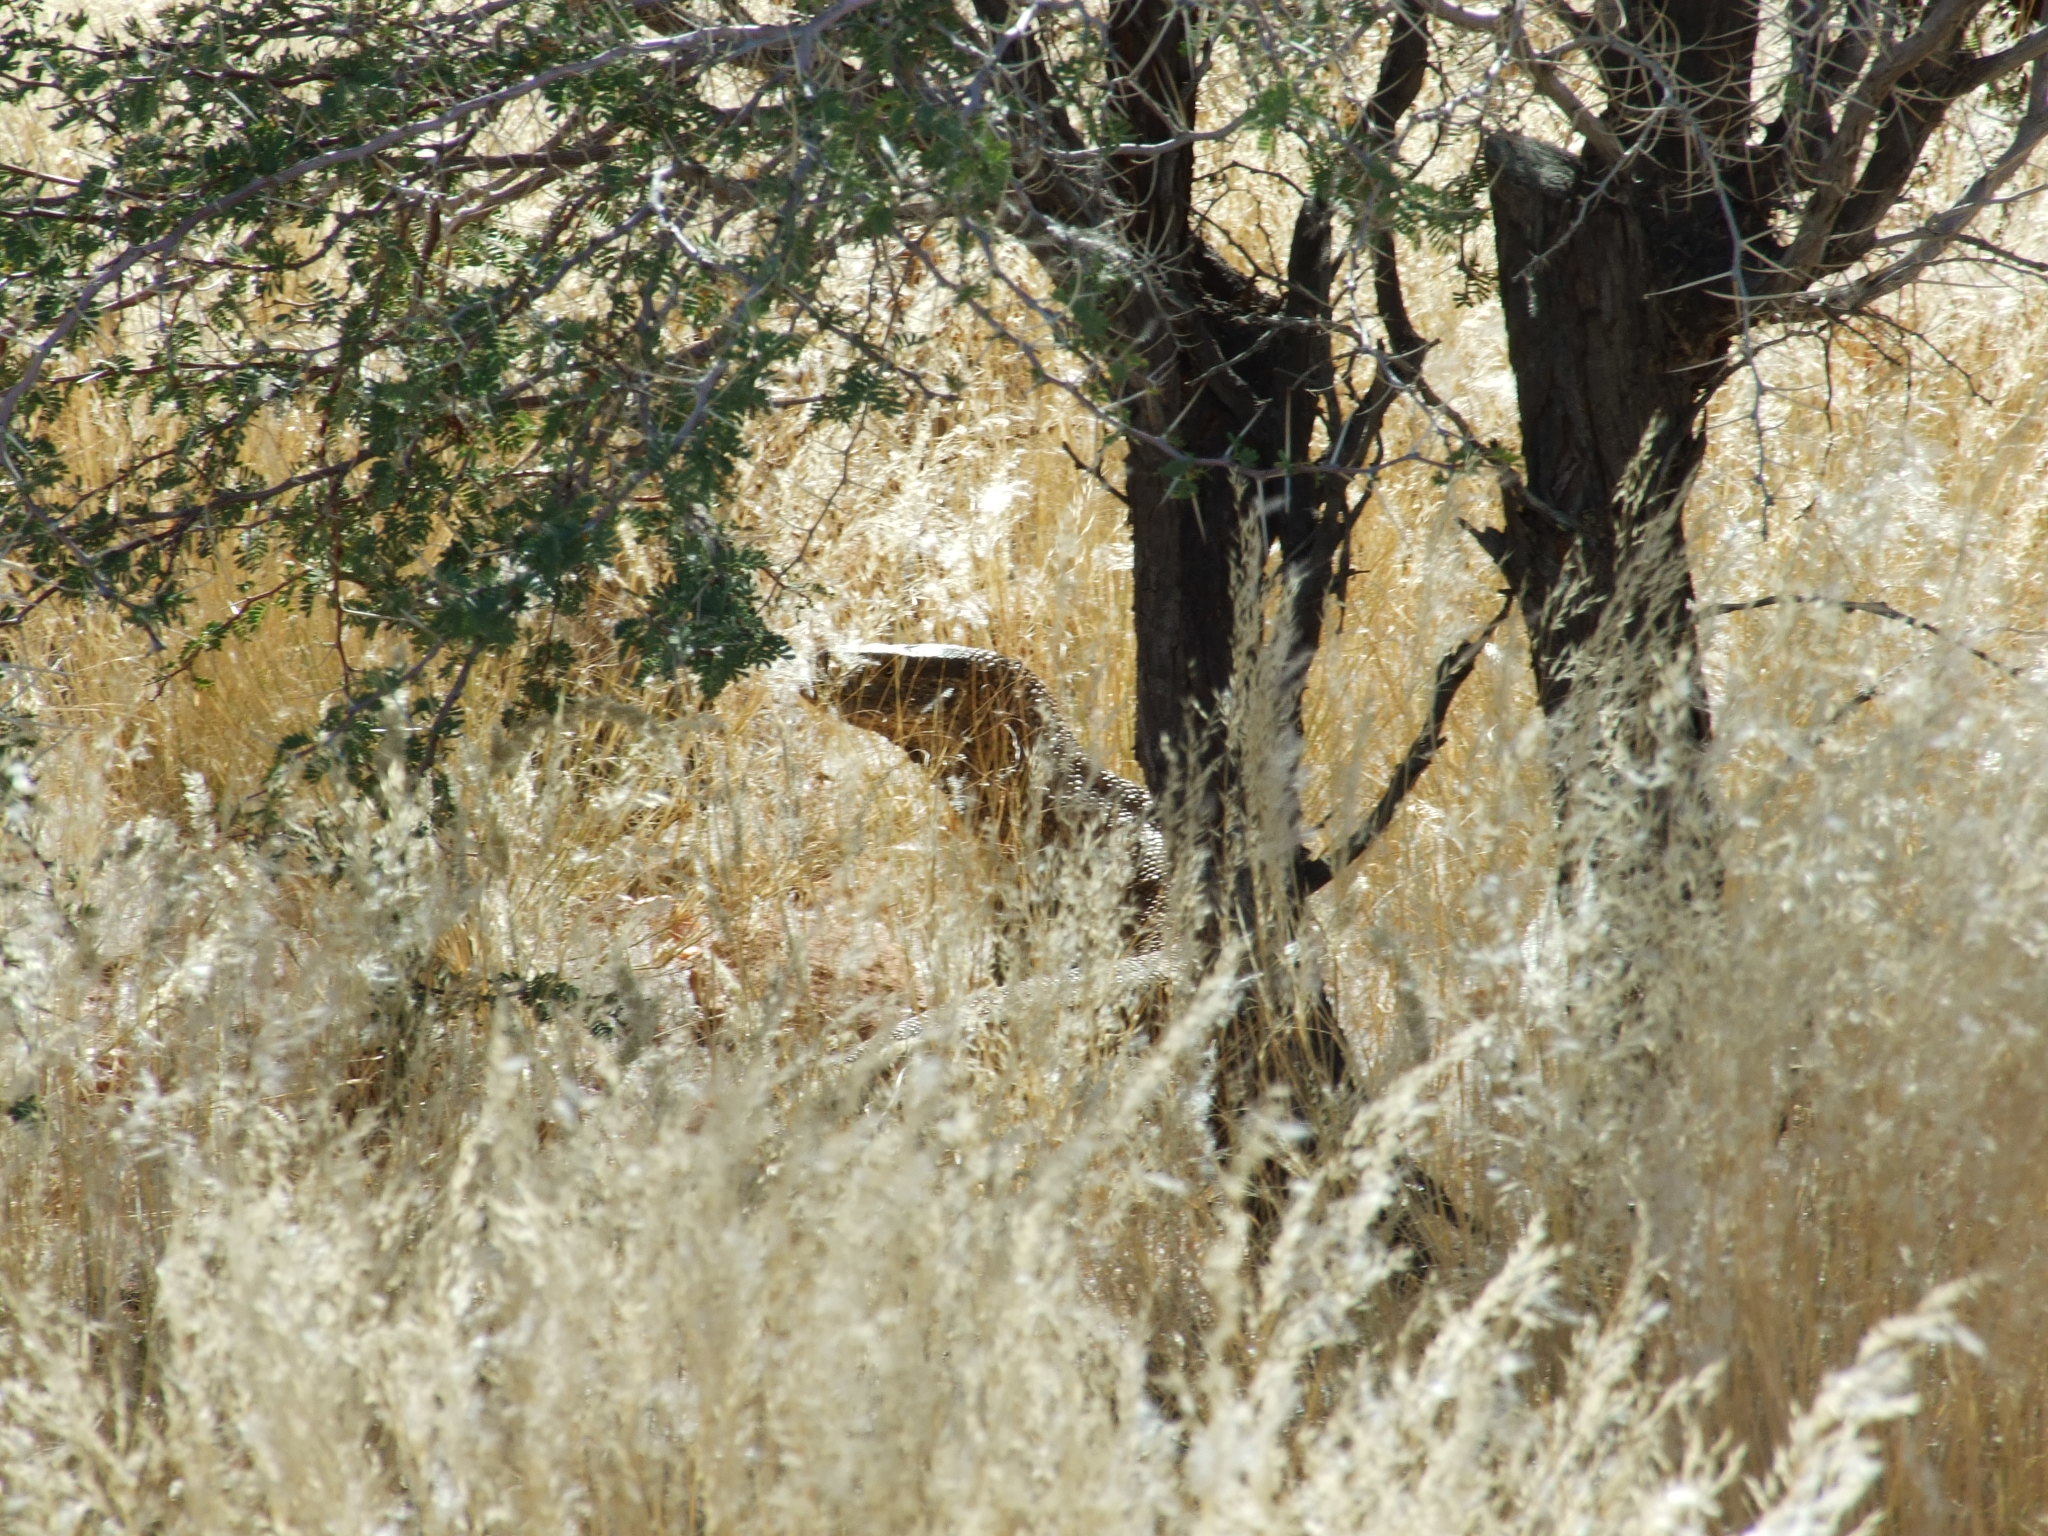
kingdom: Animalia
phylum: Chordata
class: Squamata
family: Varanidae
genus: Varanus
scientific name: Varanus albigularis
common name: White-throated monitor
